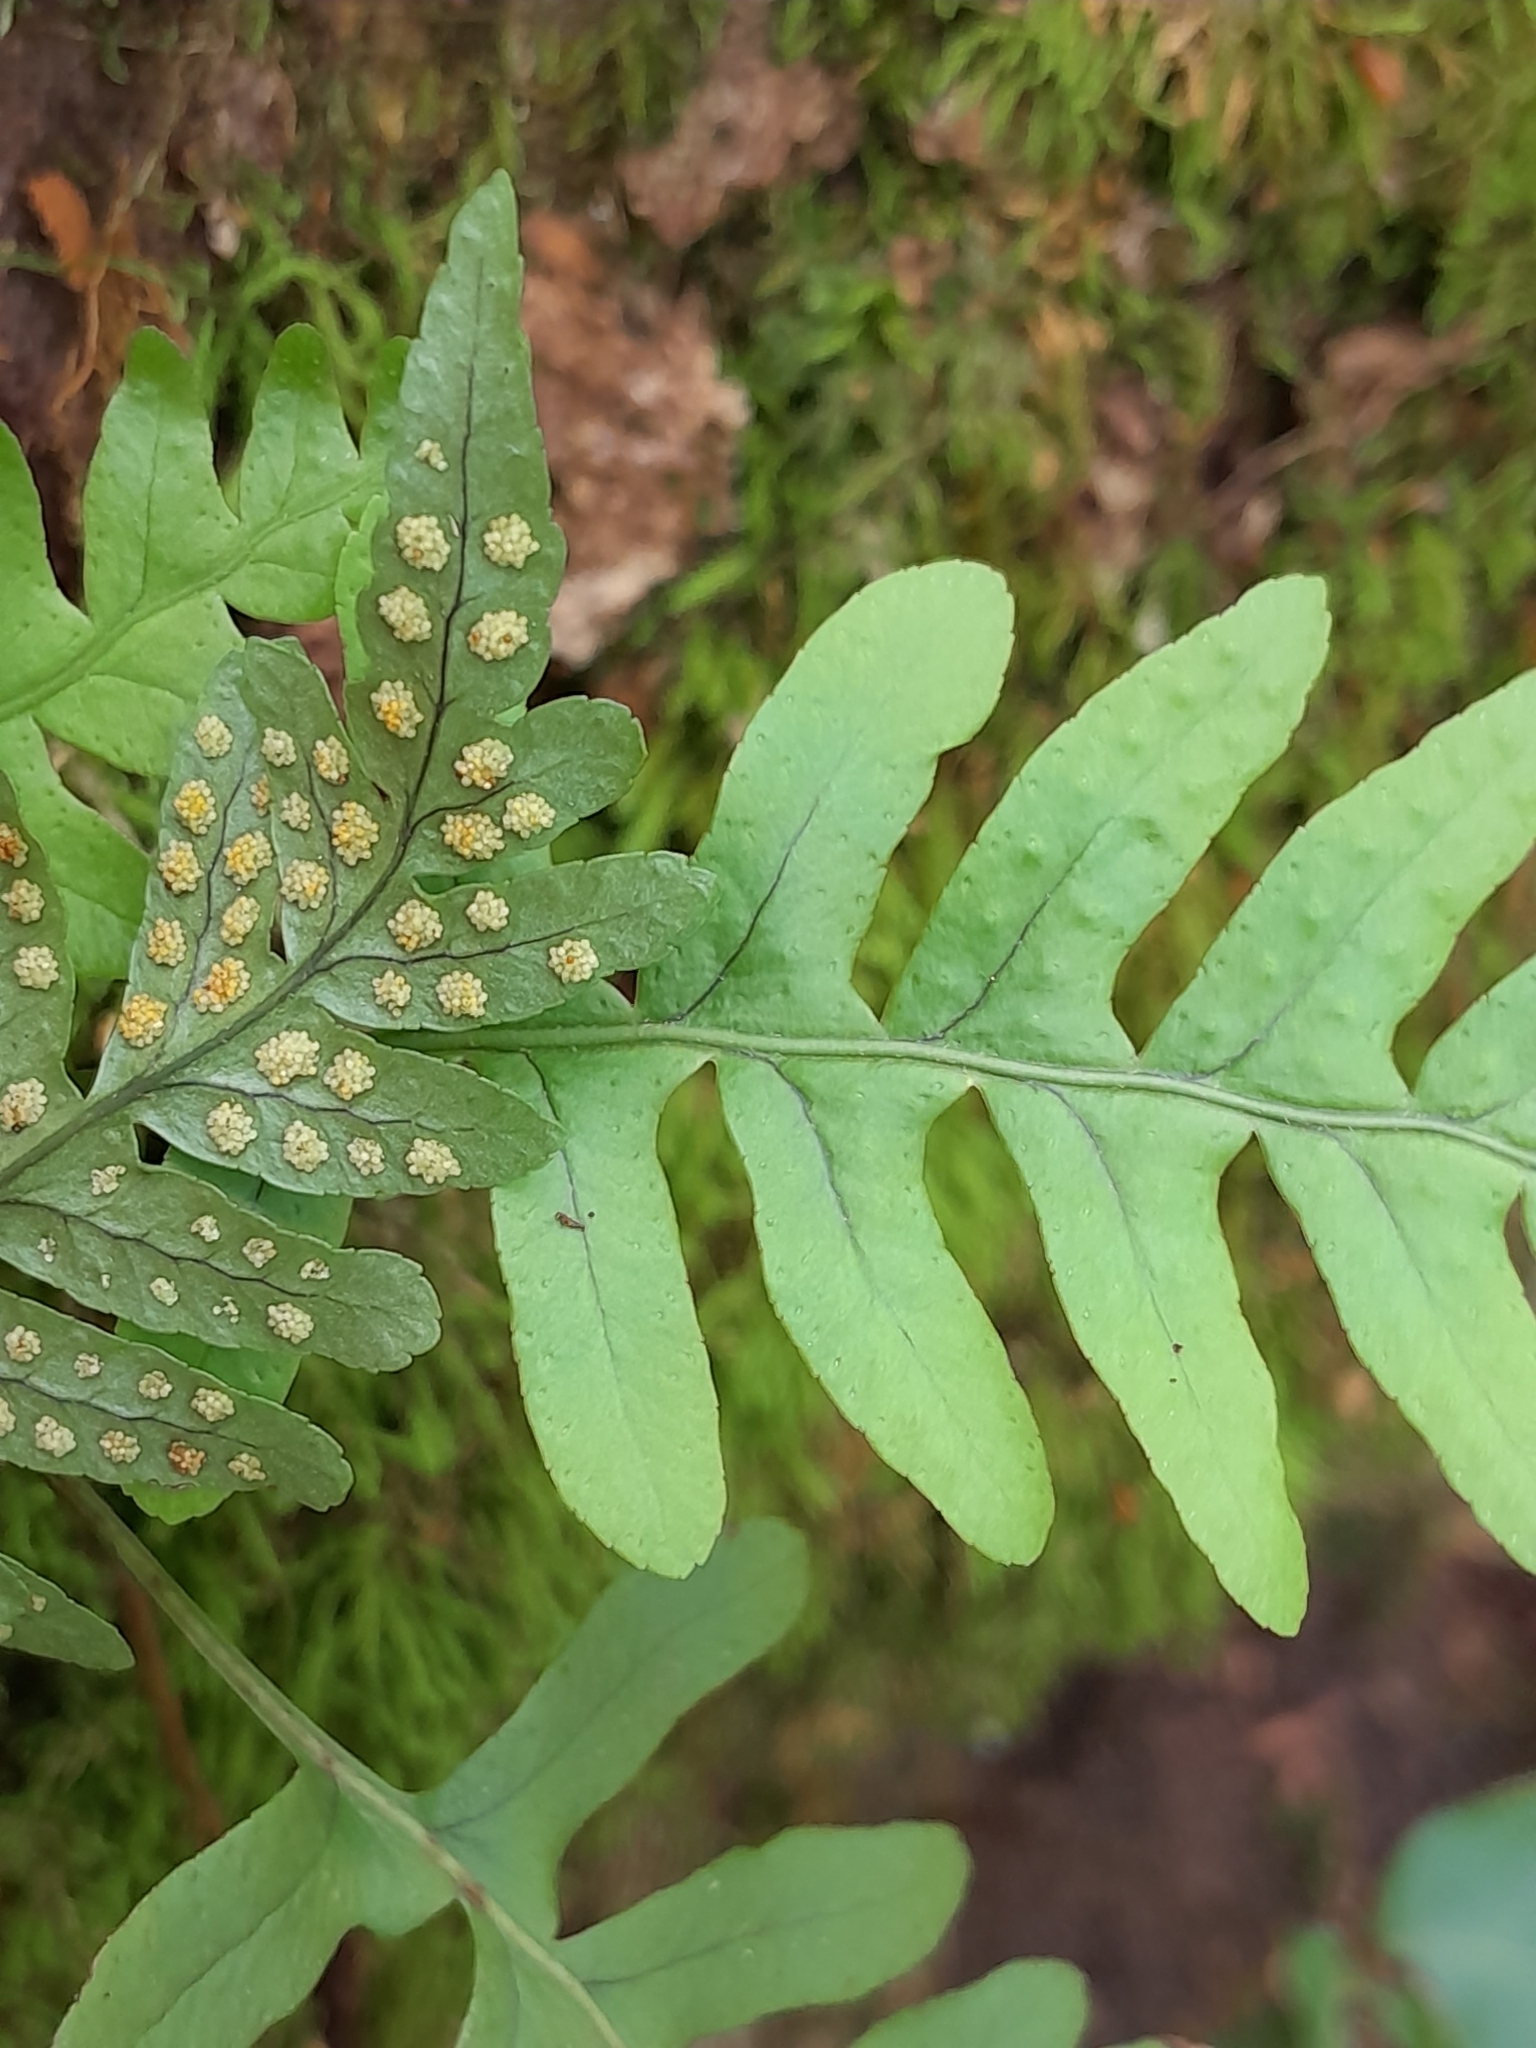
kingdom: Plantae
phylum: Tracheophyta
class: Polypodiopsida
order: Polypodiales
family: Polypodiaceae
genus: Polypodium
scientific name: Polypodium vulgare
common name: Common polypody
